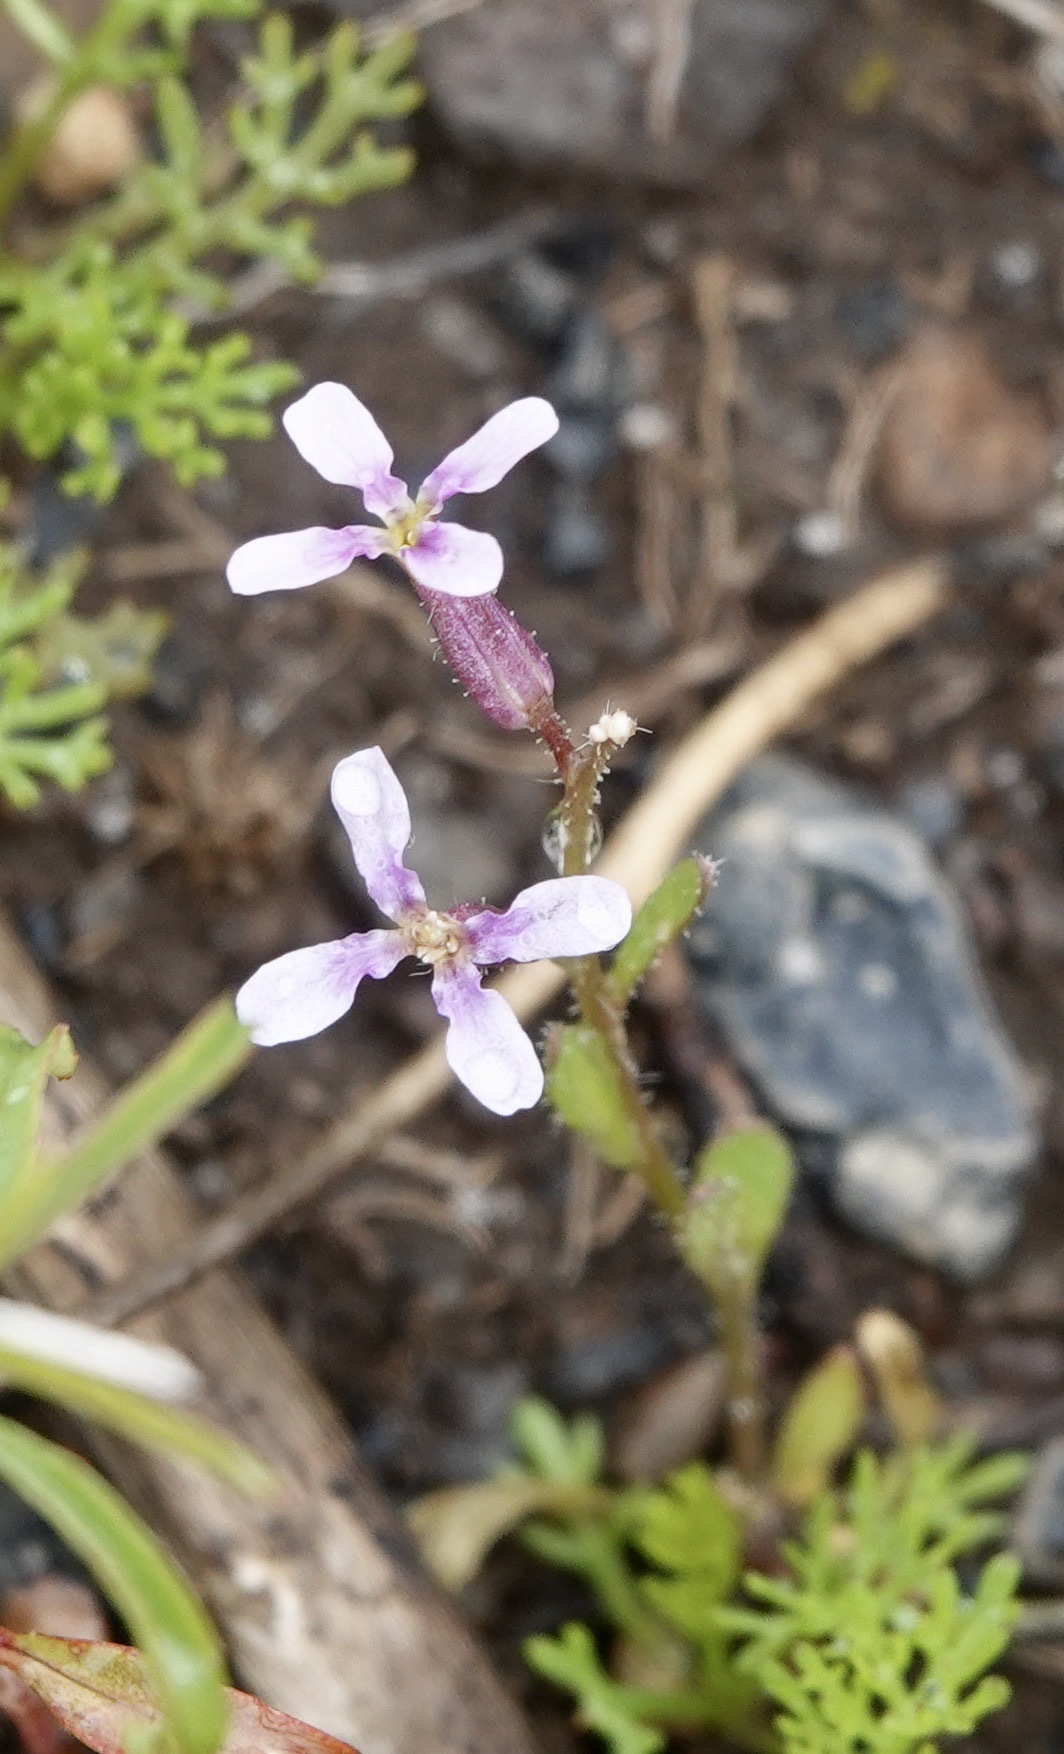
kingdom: Plantae
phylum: Tracheophyta
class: Magnoliopsida
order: Brassicales
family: Brassicaceae
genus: Chorispora
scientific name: Chorispora tenella
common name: Crossflower
